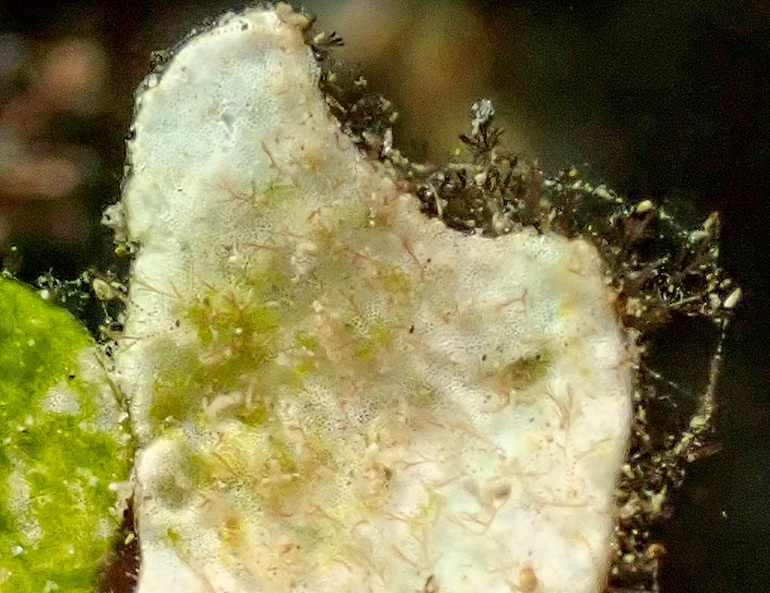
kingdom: Plantae
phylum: Chlorophyta
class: Ulvophyceae
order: Bryopsidales
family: Halimedaceae
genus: Halimeda
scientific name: Halimeda tuna
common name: Stalked lettuce leaf algae
